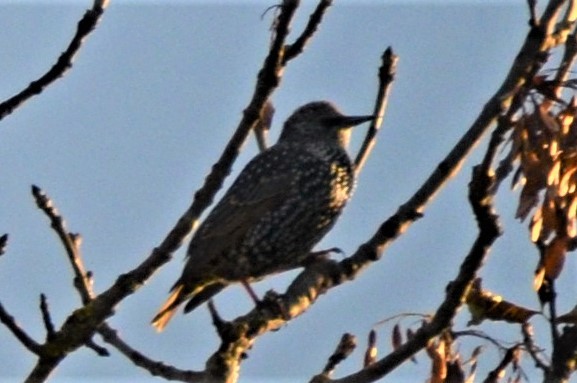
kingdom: Animalia
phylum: Chordata
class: Aves
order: Passeriformes
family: Sturnidae
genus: Sturnus
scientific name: Sturnus vulgaris
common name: Common starling
